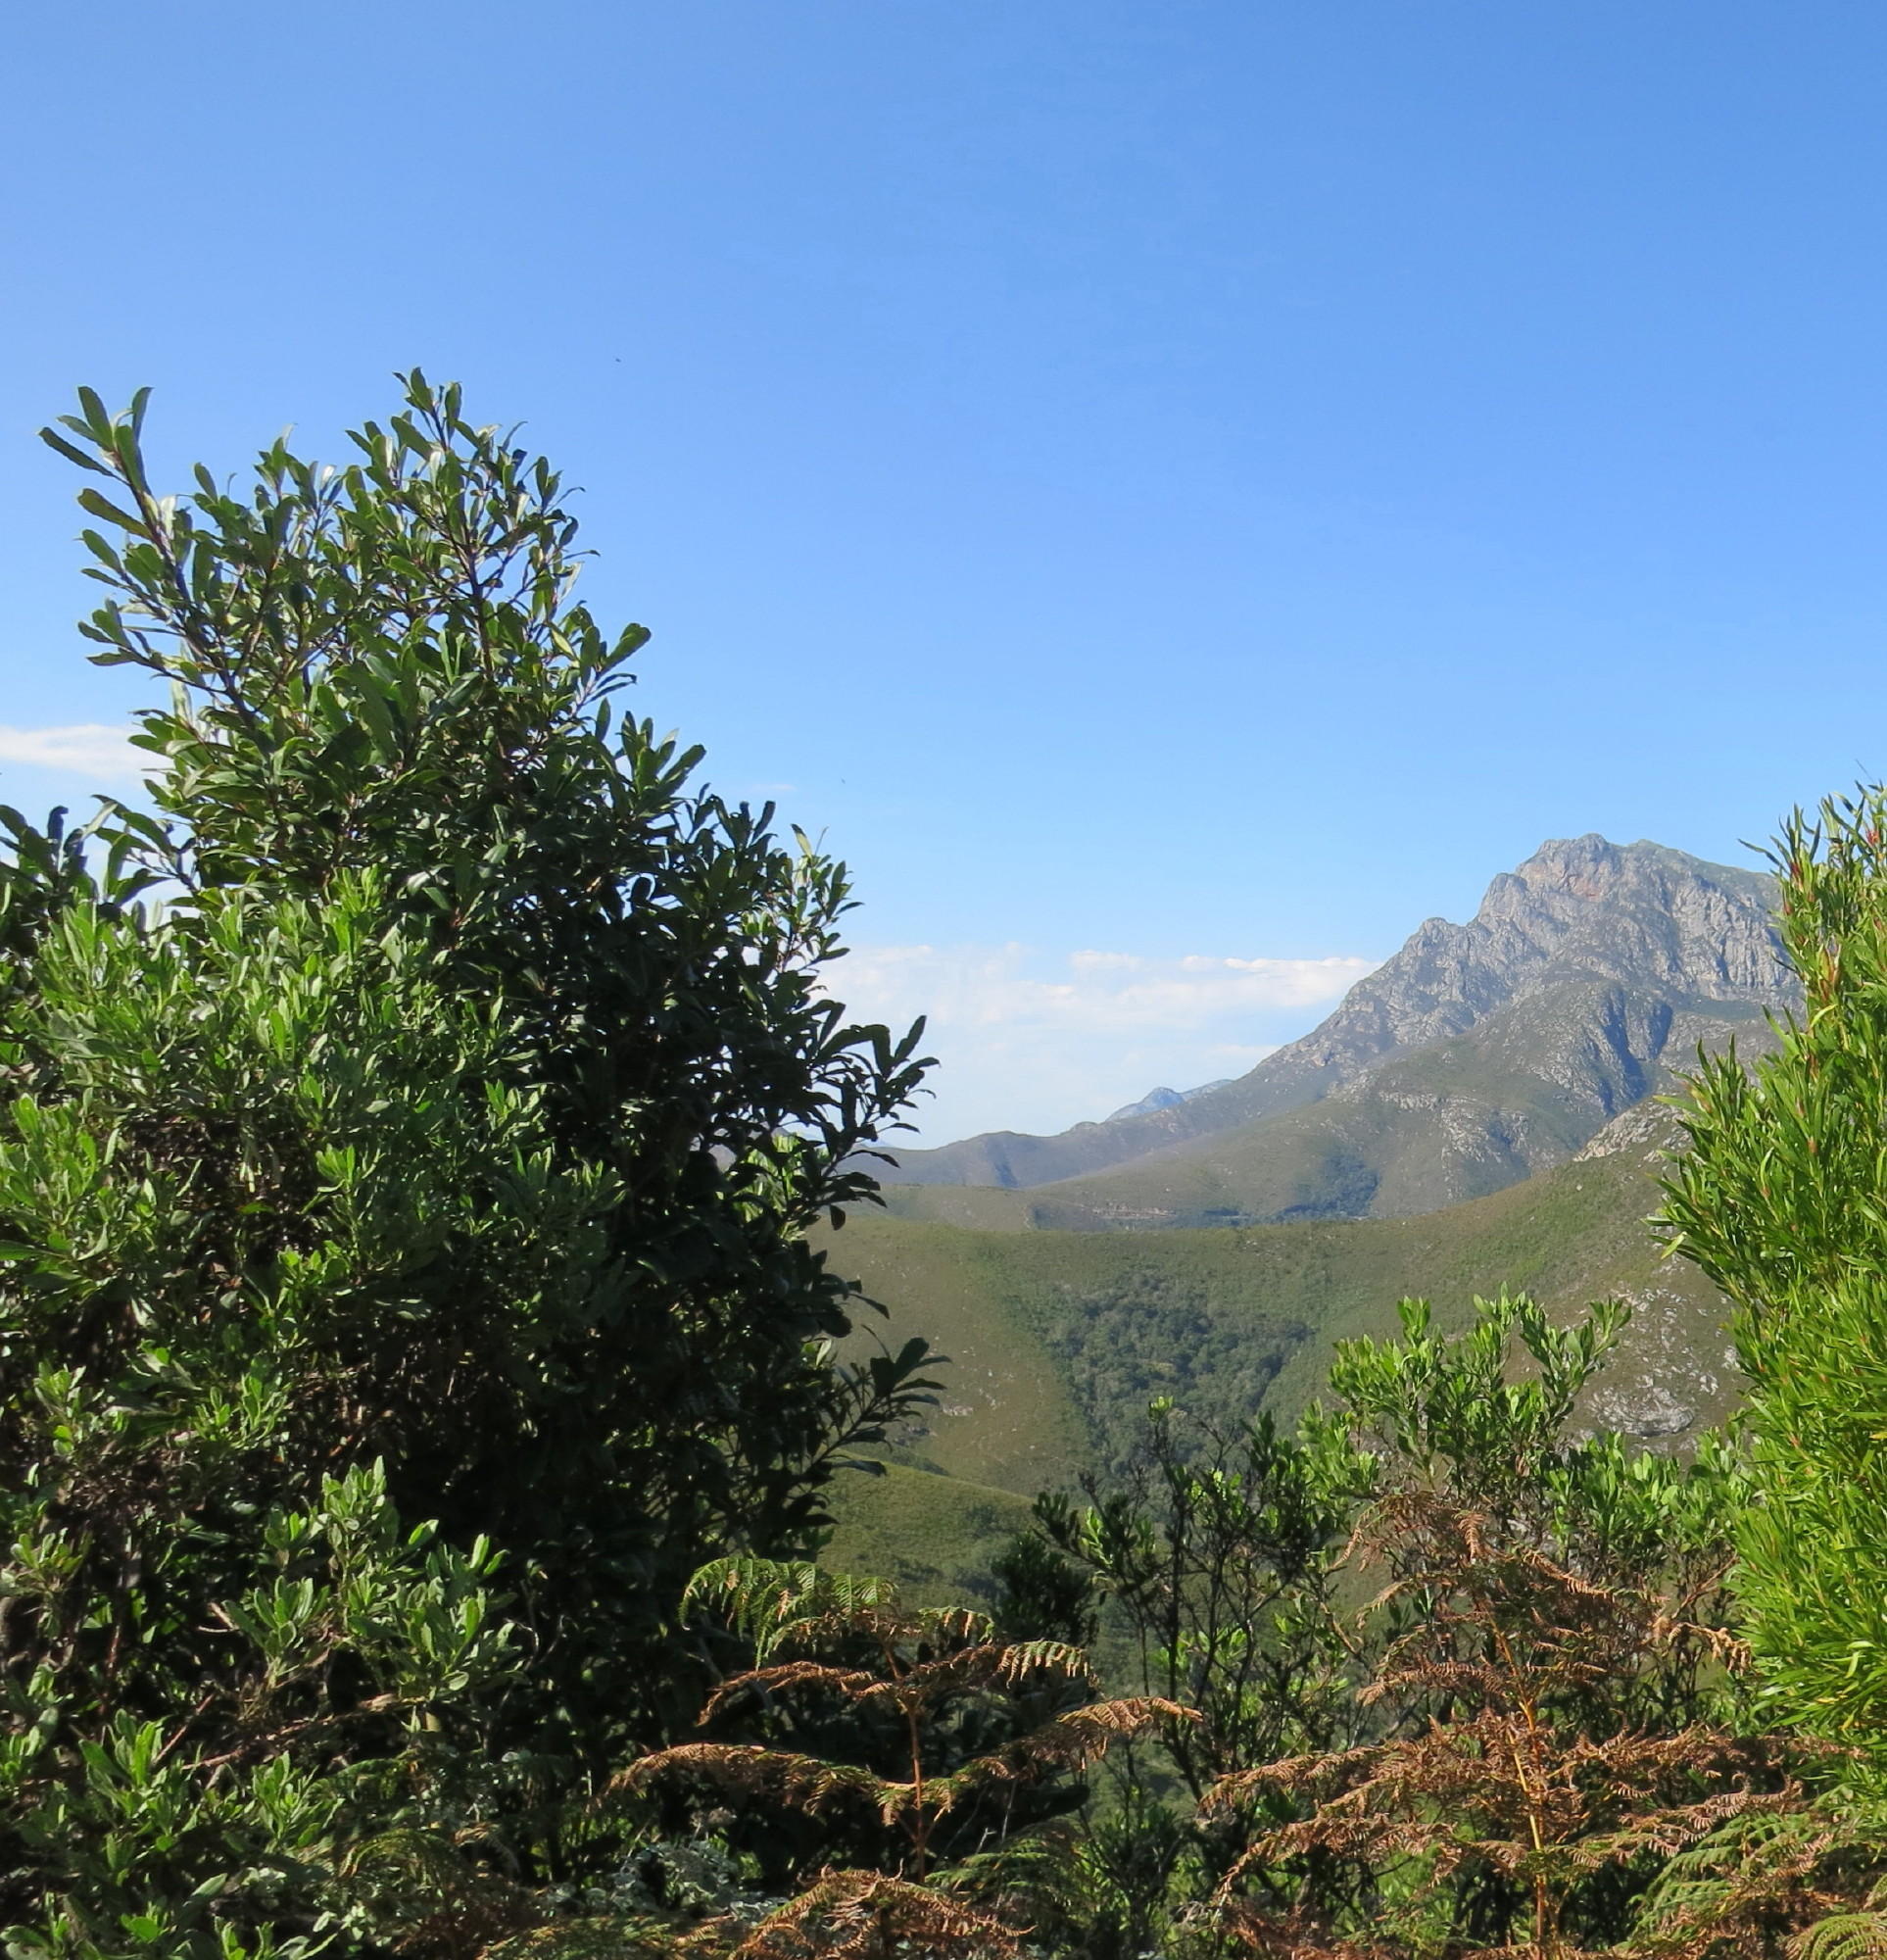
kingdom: Plantae
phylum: Tracheophyta
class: Magnoliopsida
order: Ericales
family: Primulaceae
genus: Myrsine
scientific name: Myrsine melanophloeos
